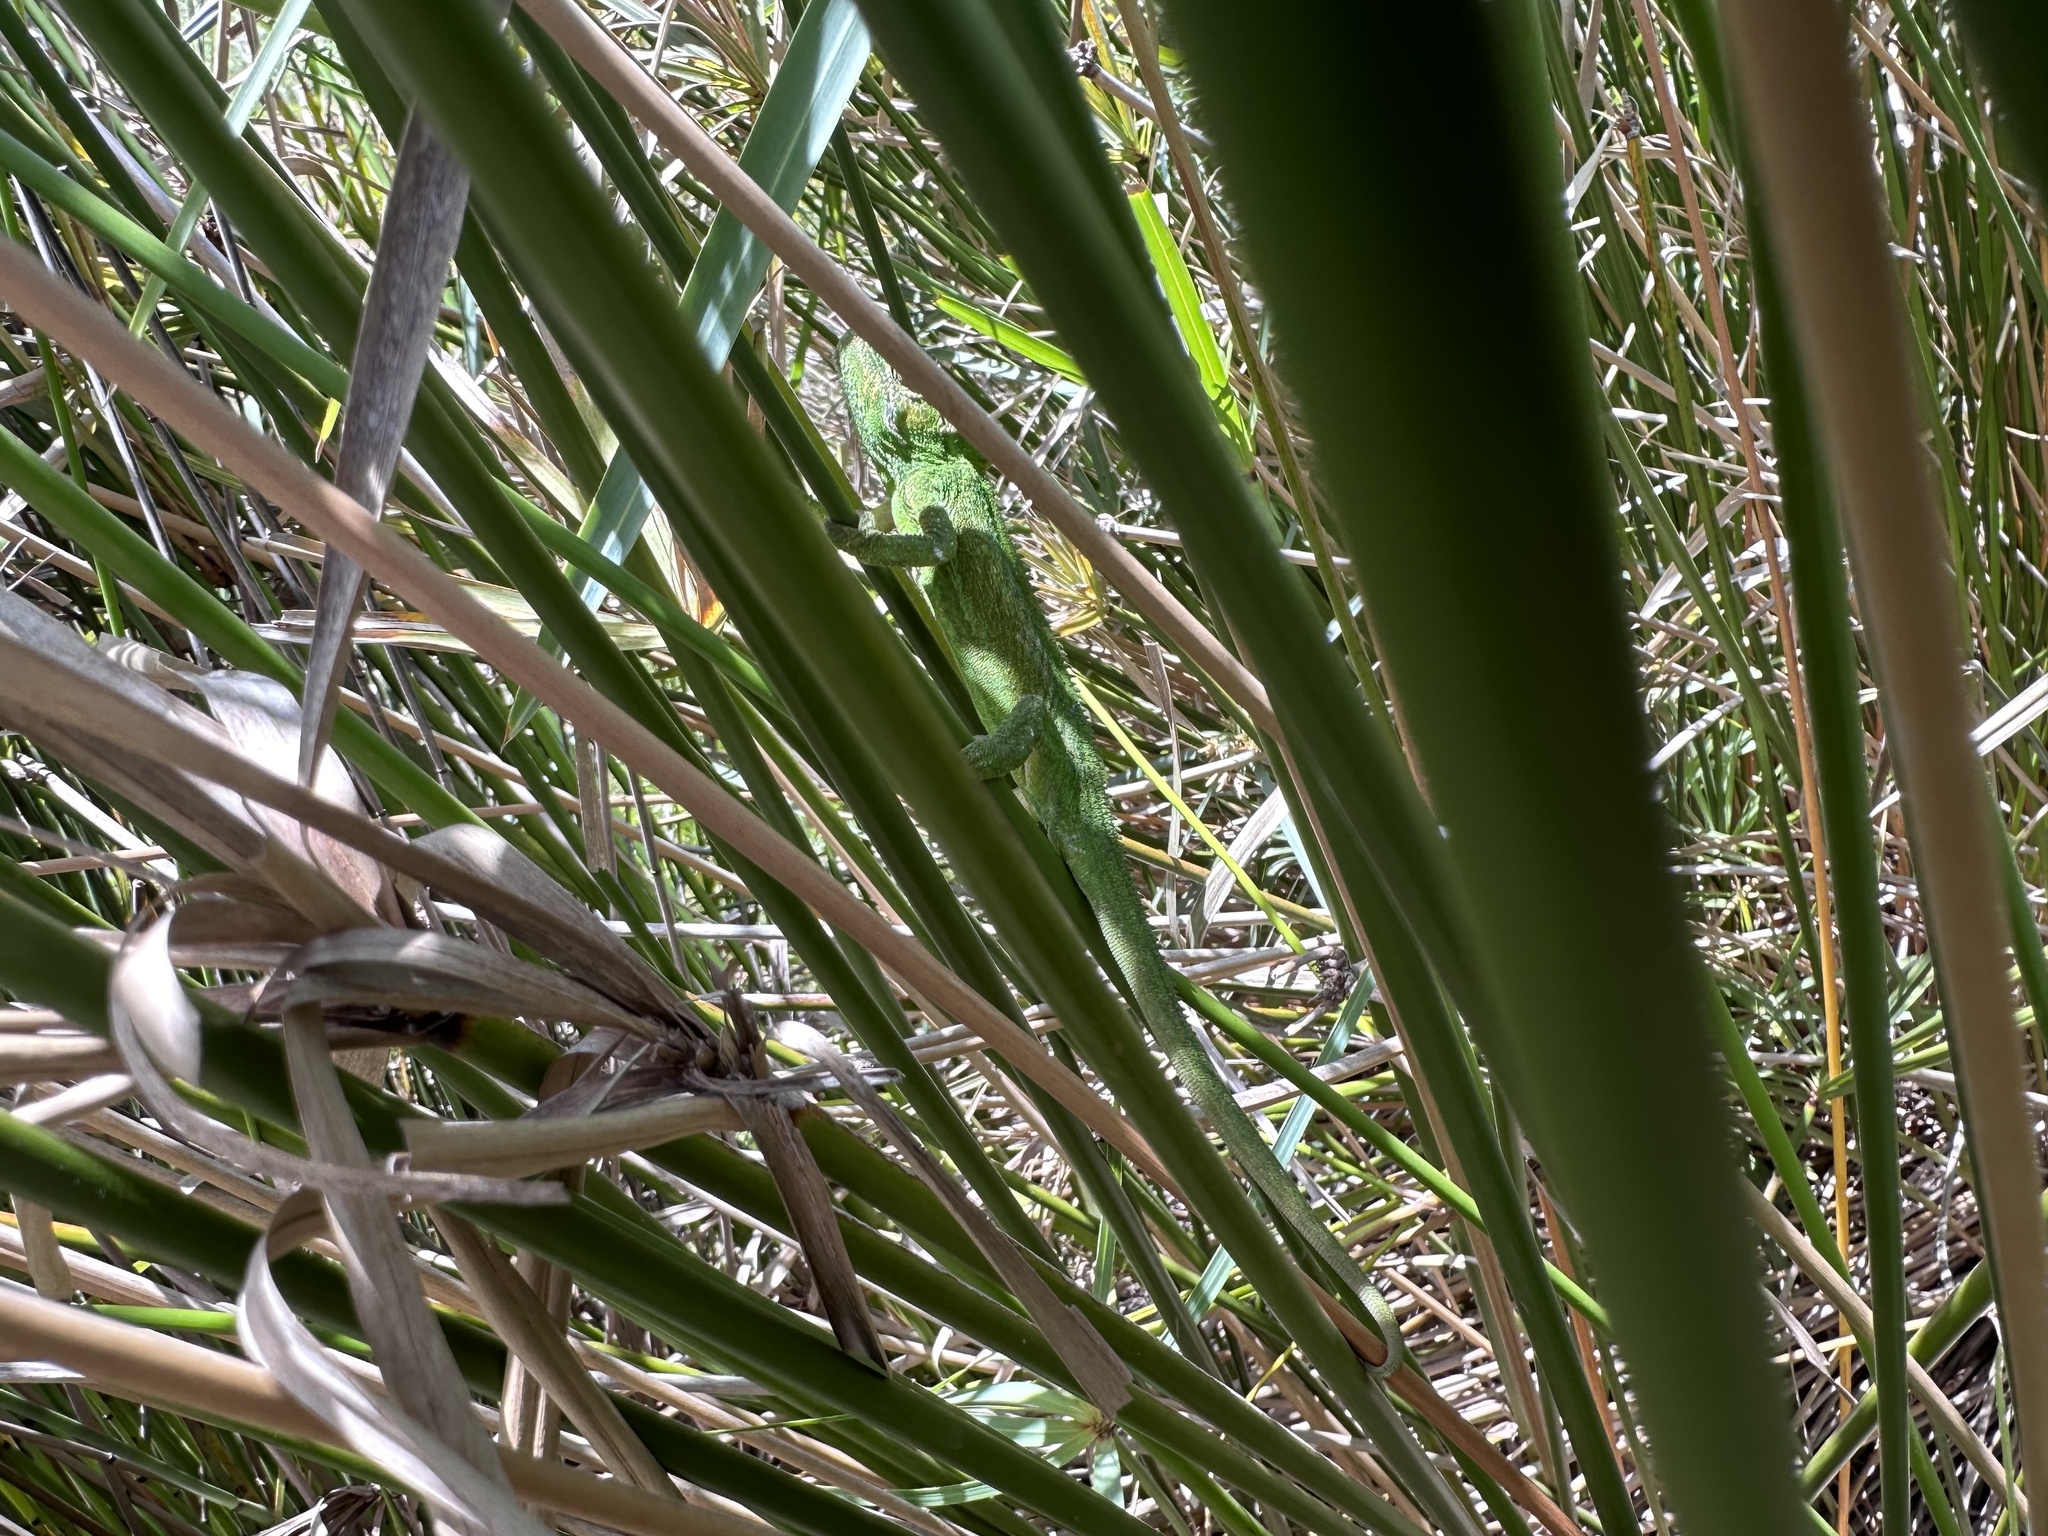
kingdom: Animalia
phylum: Chordata
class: Squamata
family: Chamaeleonidae
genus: Bradypodion
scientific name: Bradypodion pumilum
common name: Cape dwarf chameleon
